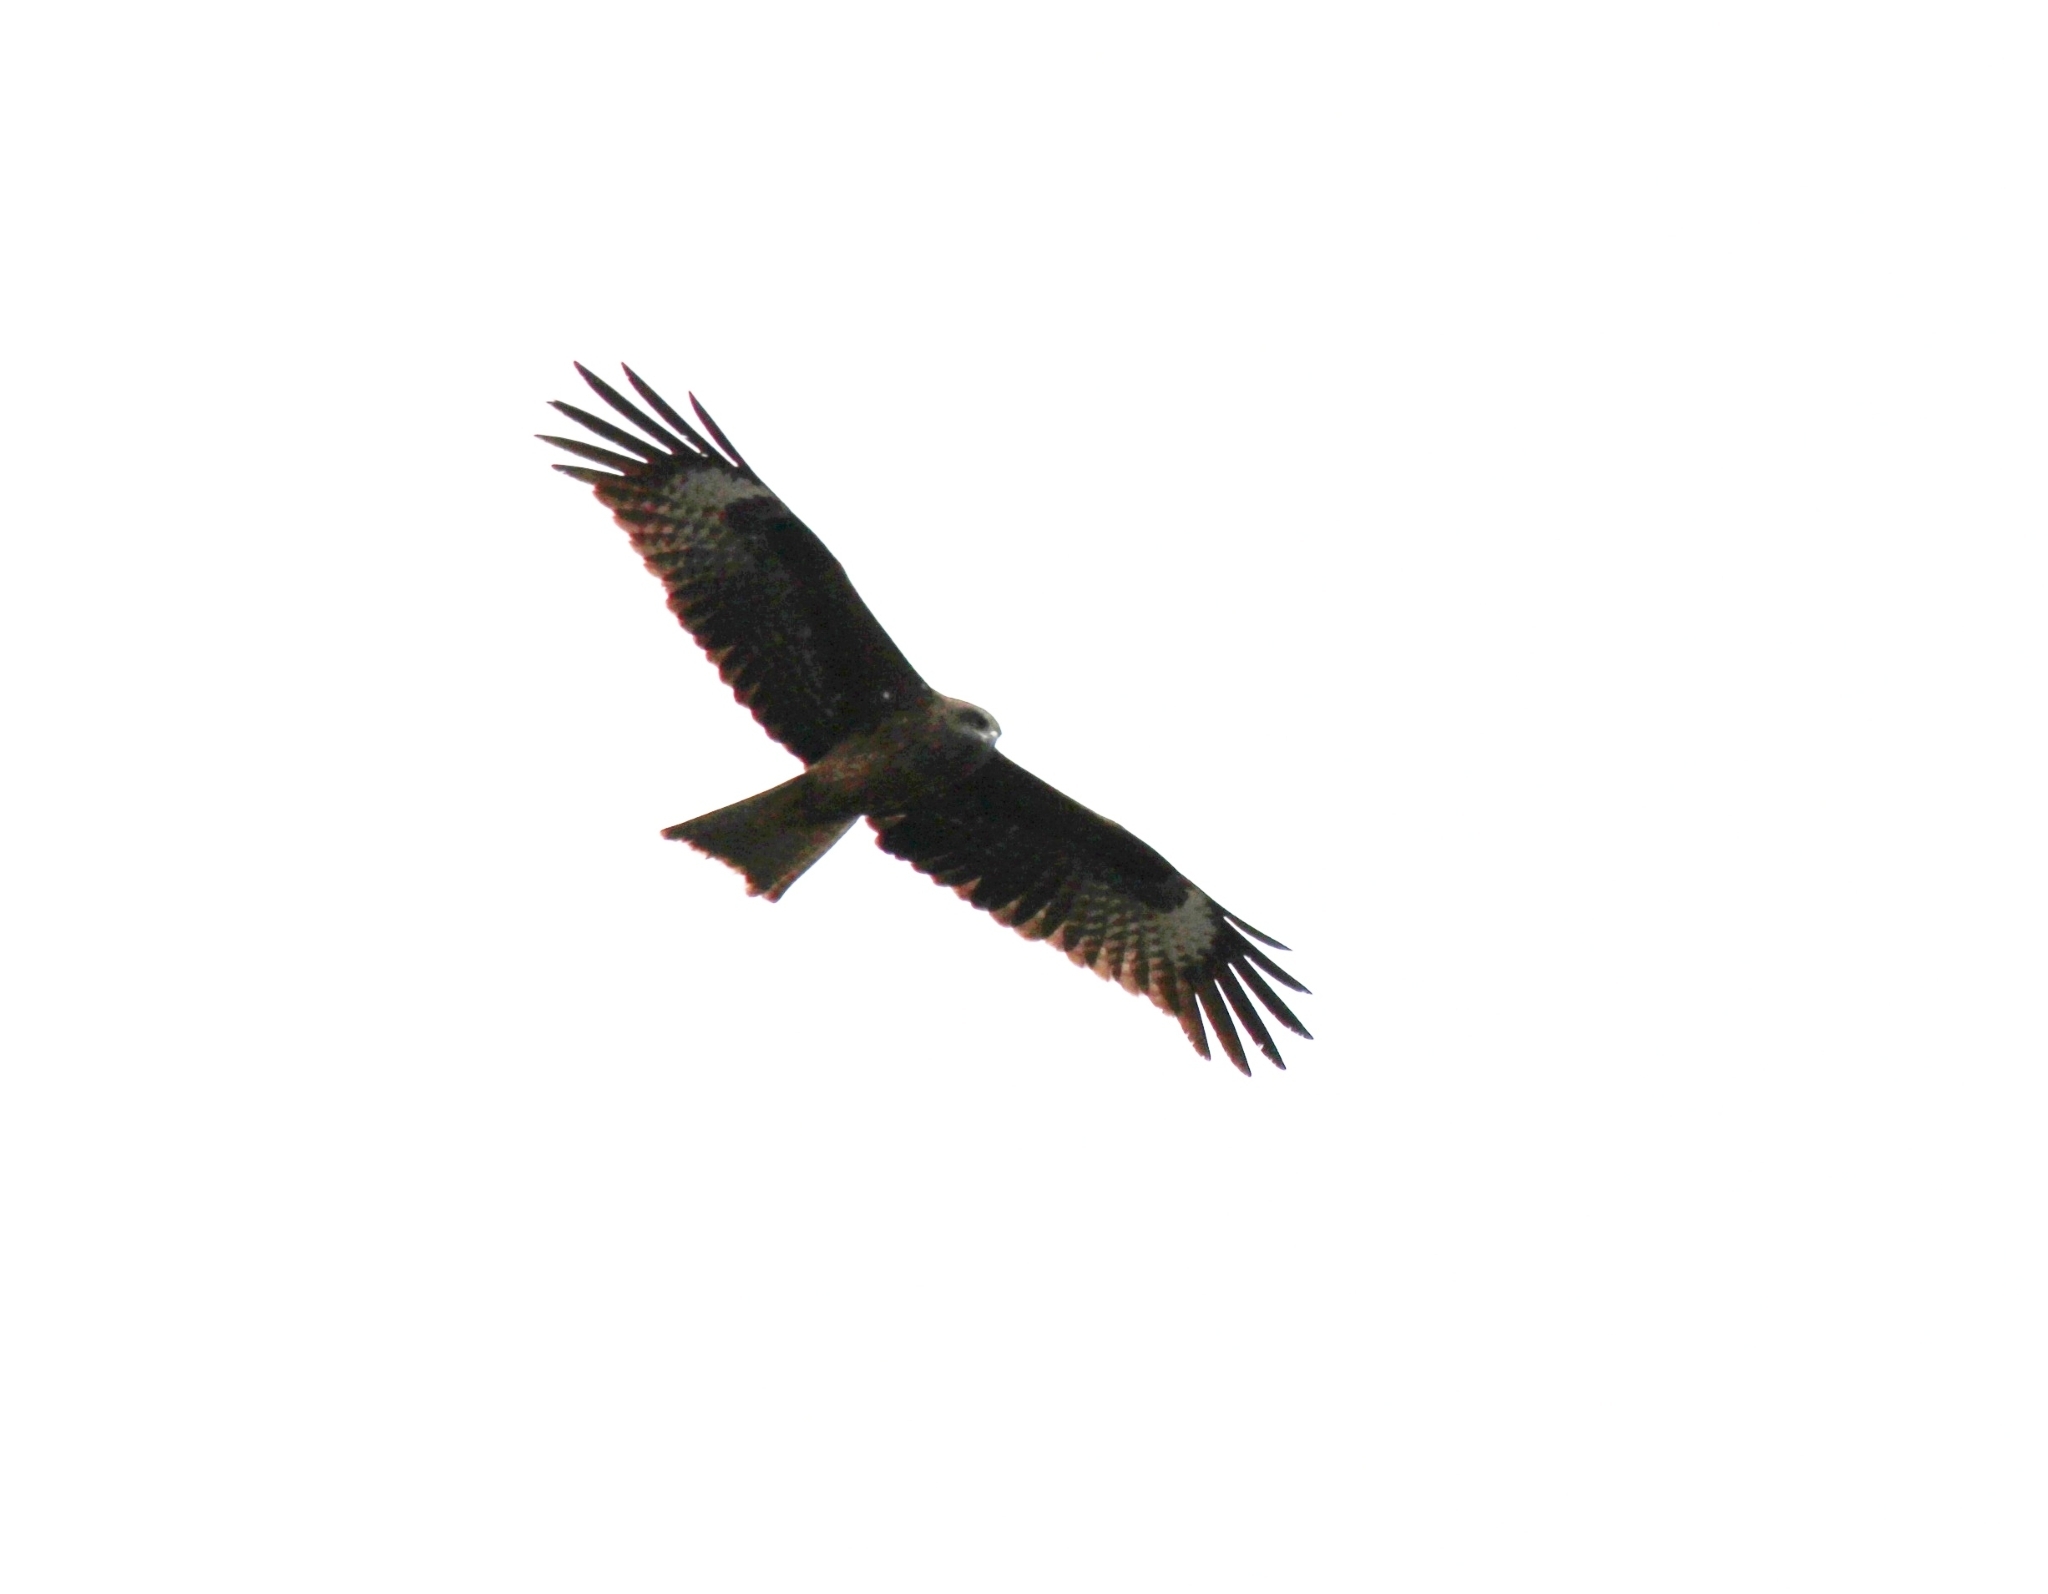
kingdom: Animalia
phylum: Chordata
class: Aves
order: Accipitriformes
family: Accipitridae
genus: Milvus
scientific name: Milvus migrans
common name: Black kite
